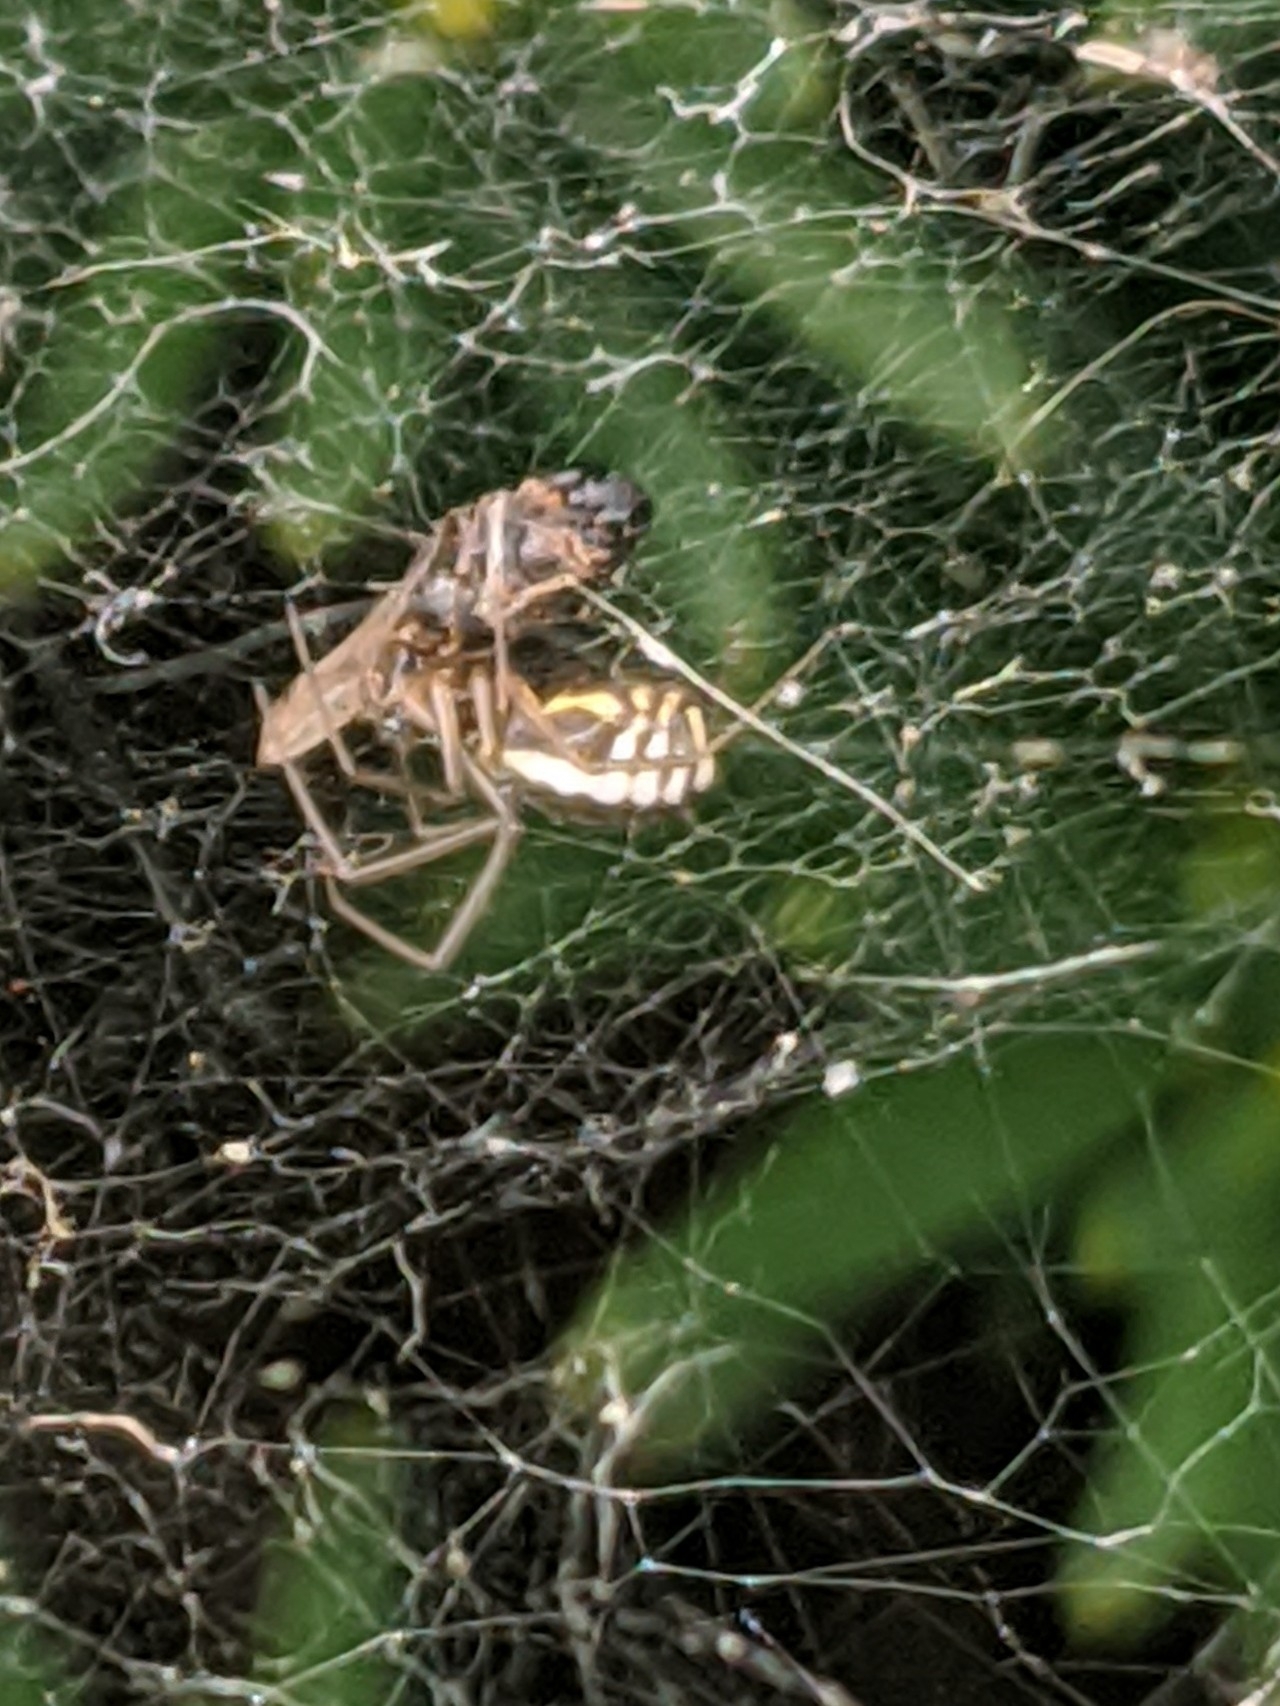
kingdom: Animalia
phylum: Arthropoda
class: Arachnida
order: Araneae
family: Linyphiidae
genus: Frontinella
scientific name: Frontinella pyramitela
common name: Bowl-and-doily spider
